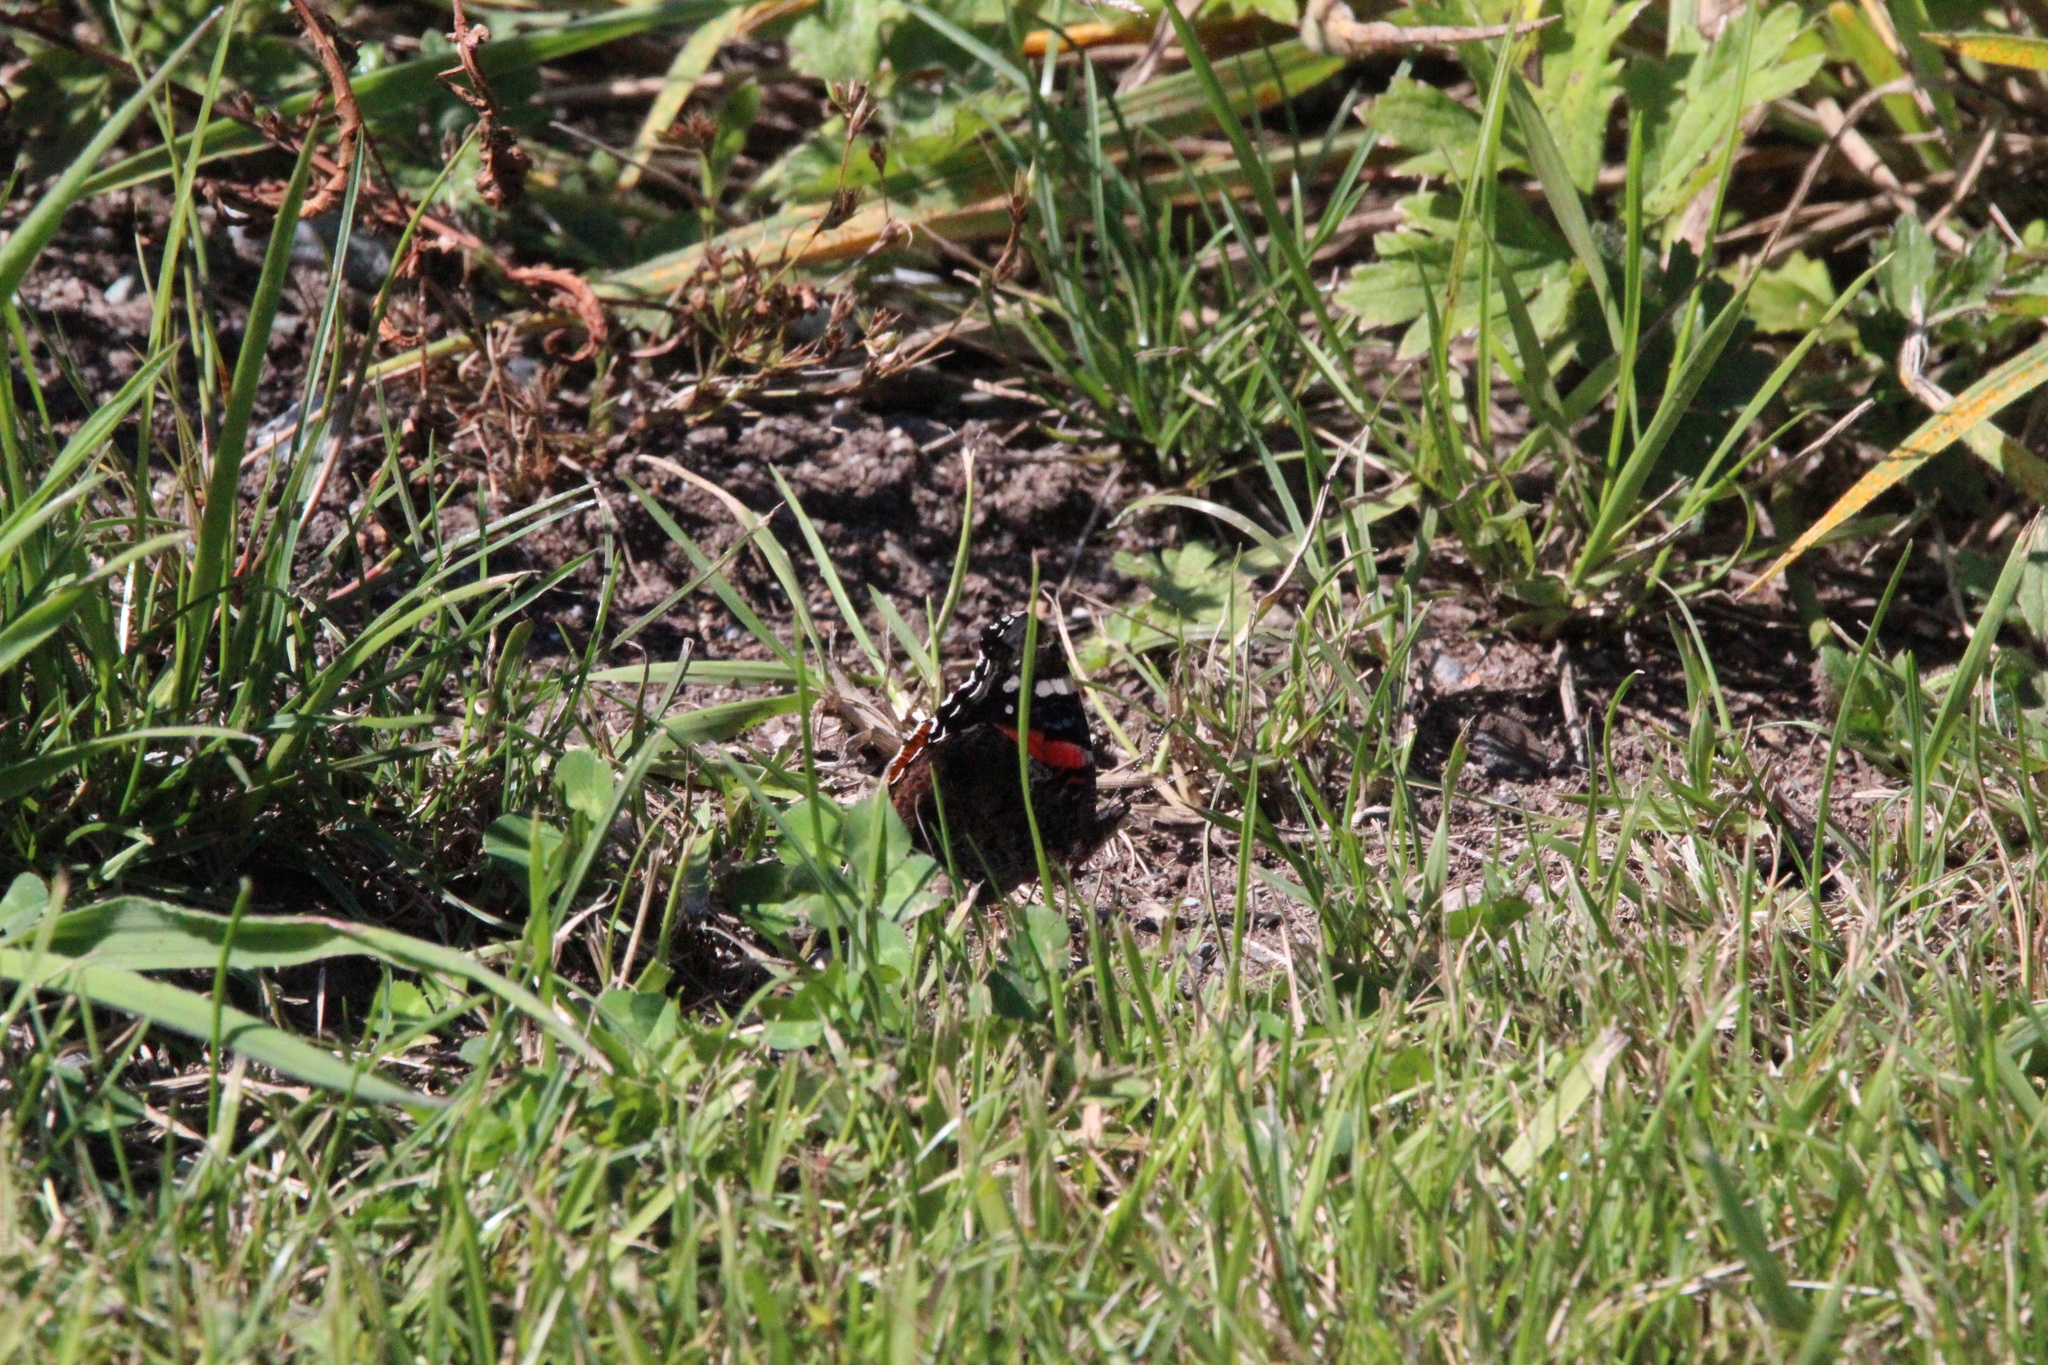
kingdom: Animalia
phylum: Arthropoda
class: Insecta
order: Lepidoptera
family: Nymphalidae
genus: Vanessa
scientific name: Vanessa atalanta
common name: Red admiral
